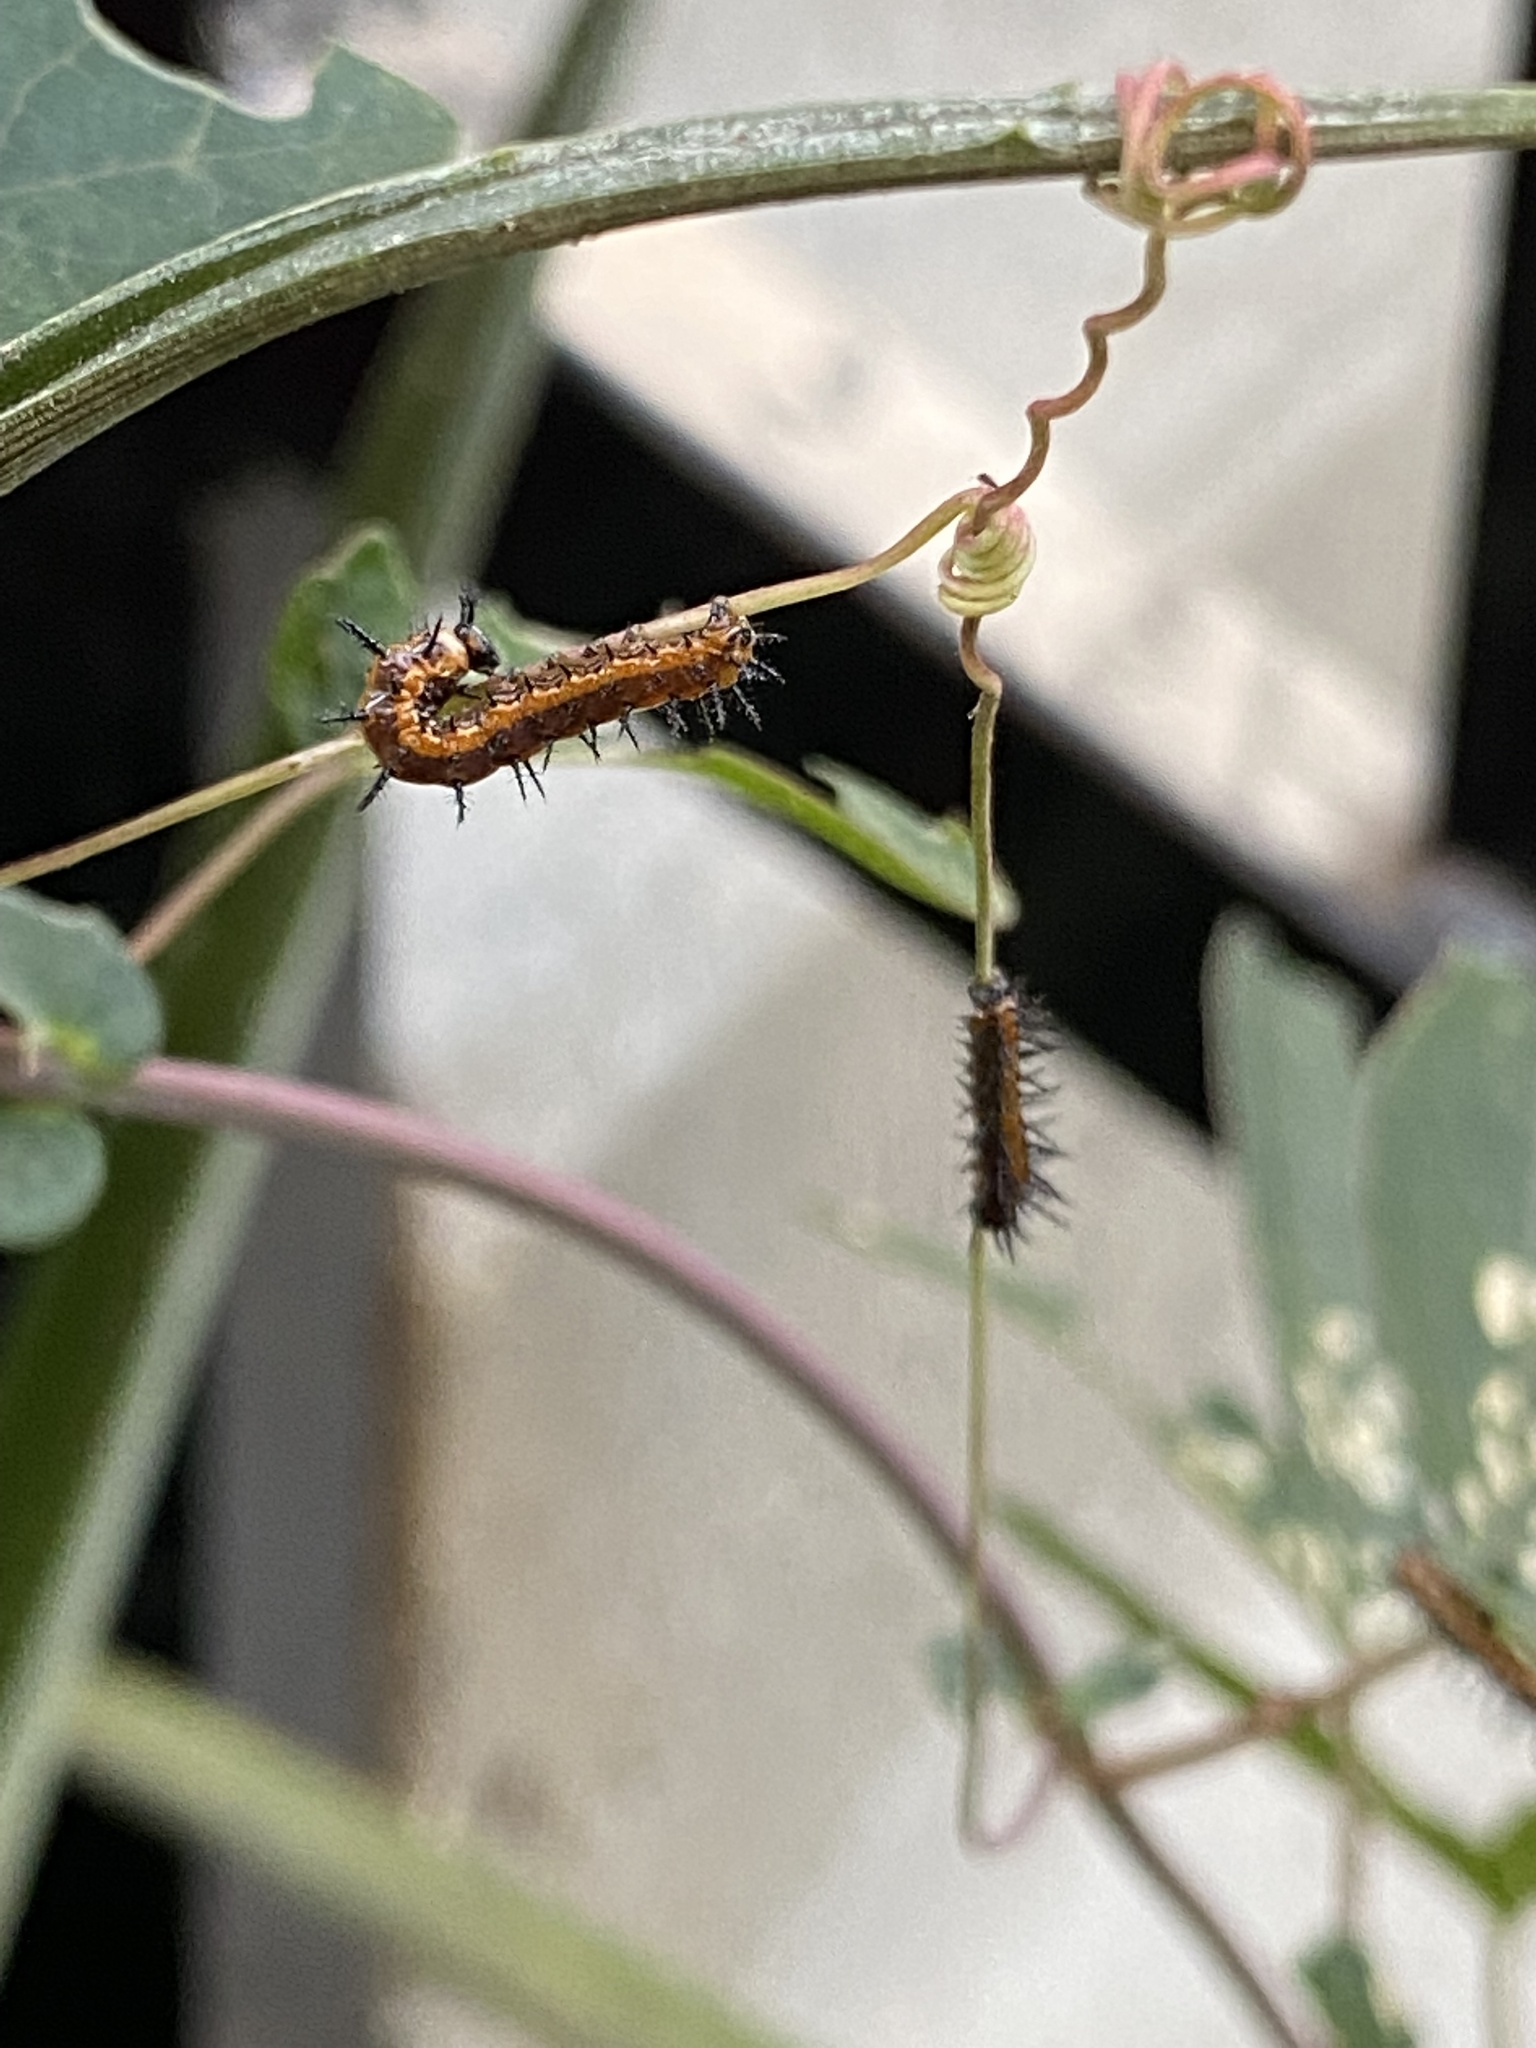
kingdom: Animalia
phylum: Arthropoda
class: Insecta
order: Lepidoptera
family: Nymphalidae
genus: Dione
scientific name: Dione vanillae
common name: Gulf fritillary
